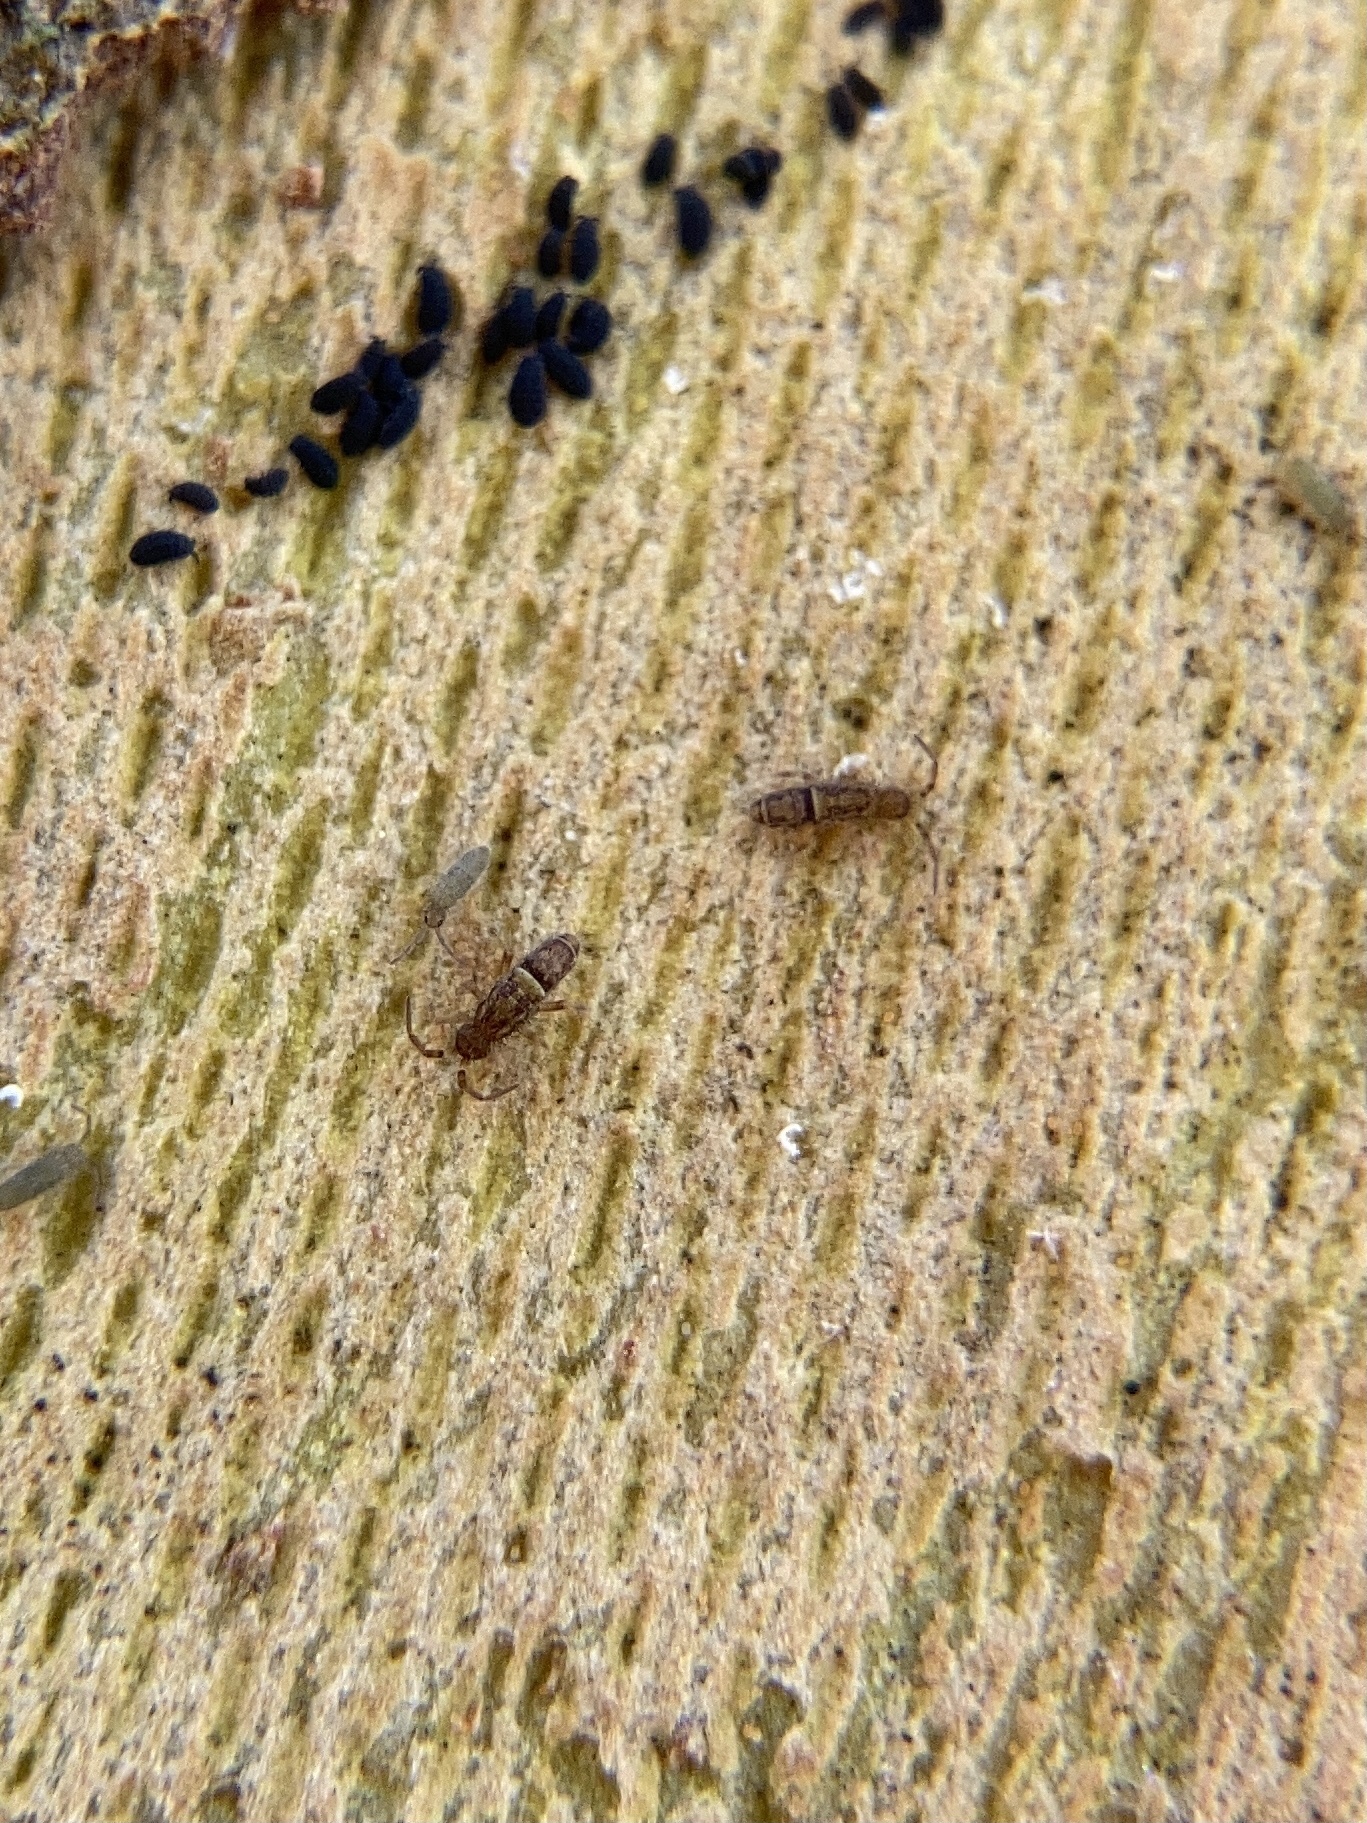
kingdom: Animalia
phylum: Arthropoda
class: Collembola
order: Entomobryomorpha
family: Orchesellidae
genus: Orchesella
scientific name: Orchesella cincta
